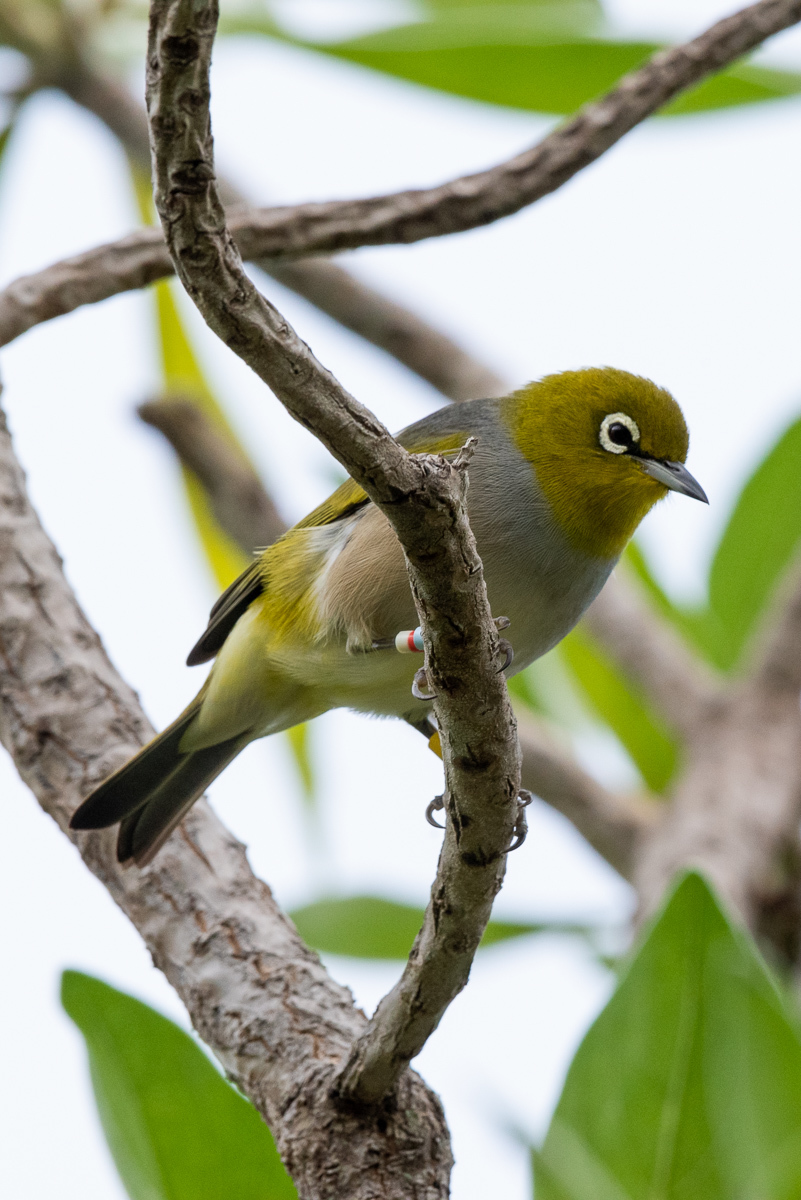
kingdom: Animalia
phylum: Chordata
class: Aves
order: Passeriformes
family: Zosteropidae
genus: Zosterops
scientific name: Zosterops lateralis
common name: Silvereye
